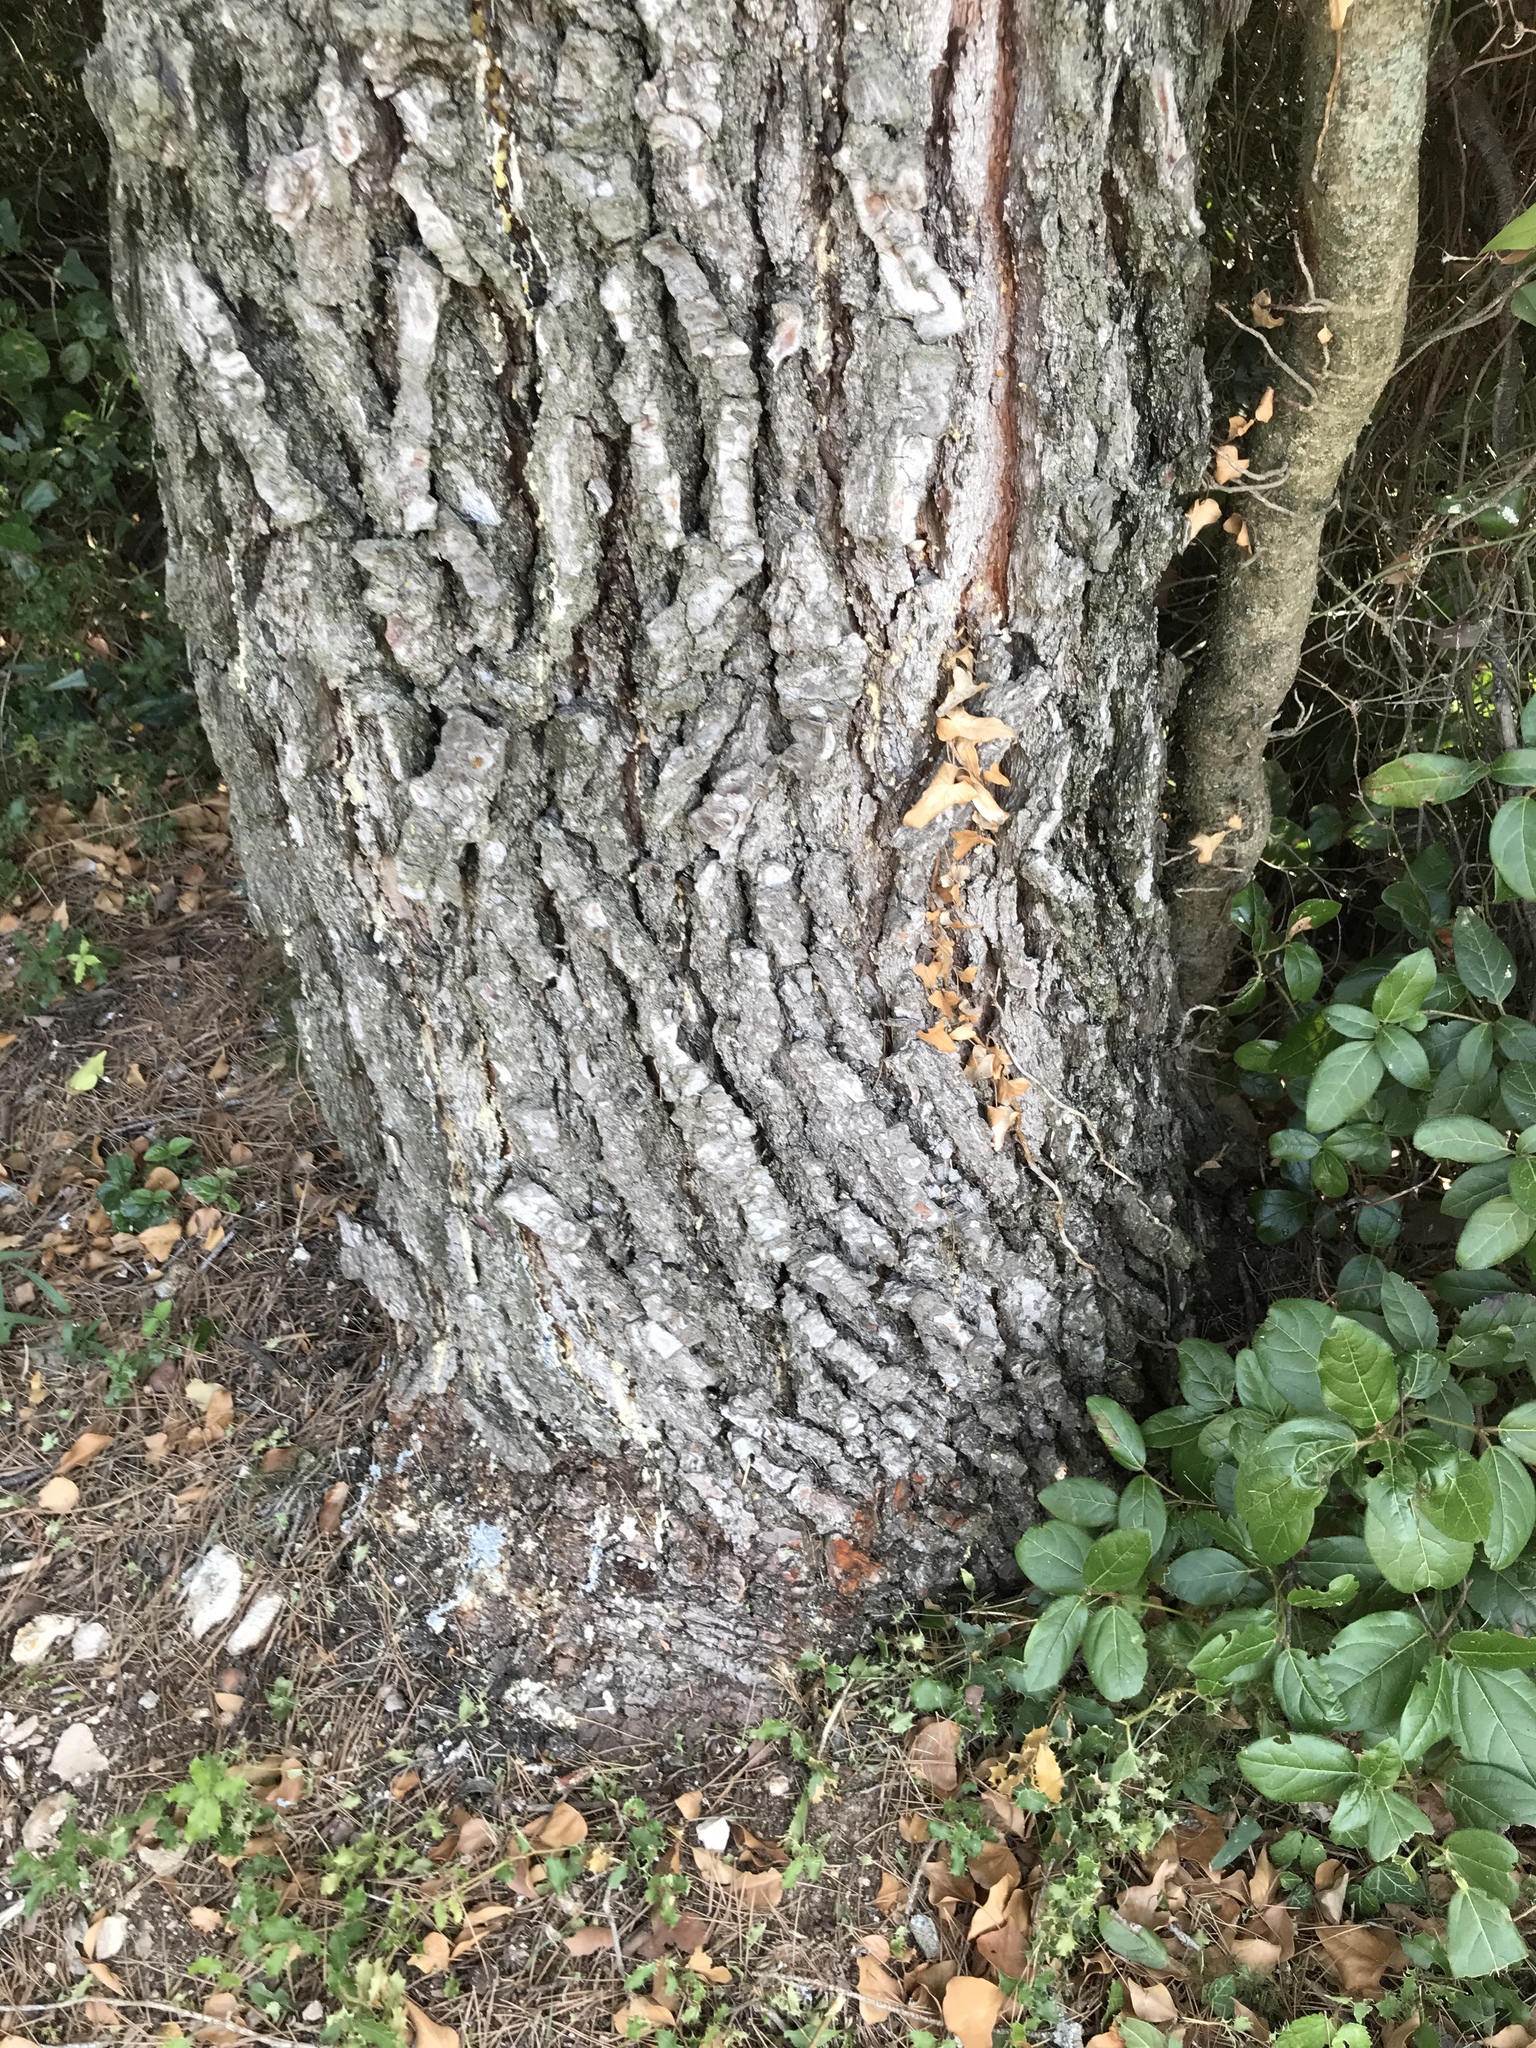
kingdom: Plantae
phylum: Tracheophyta
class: Pinopsida
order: Pinales
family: Pinaceae
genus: Pinus
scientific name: Pinus halepensis
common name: Aleppo pine
